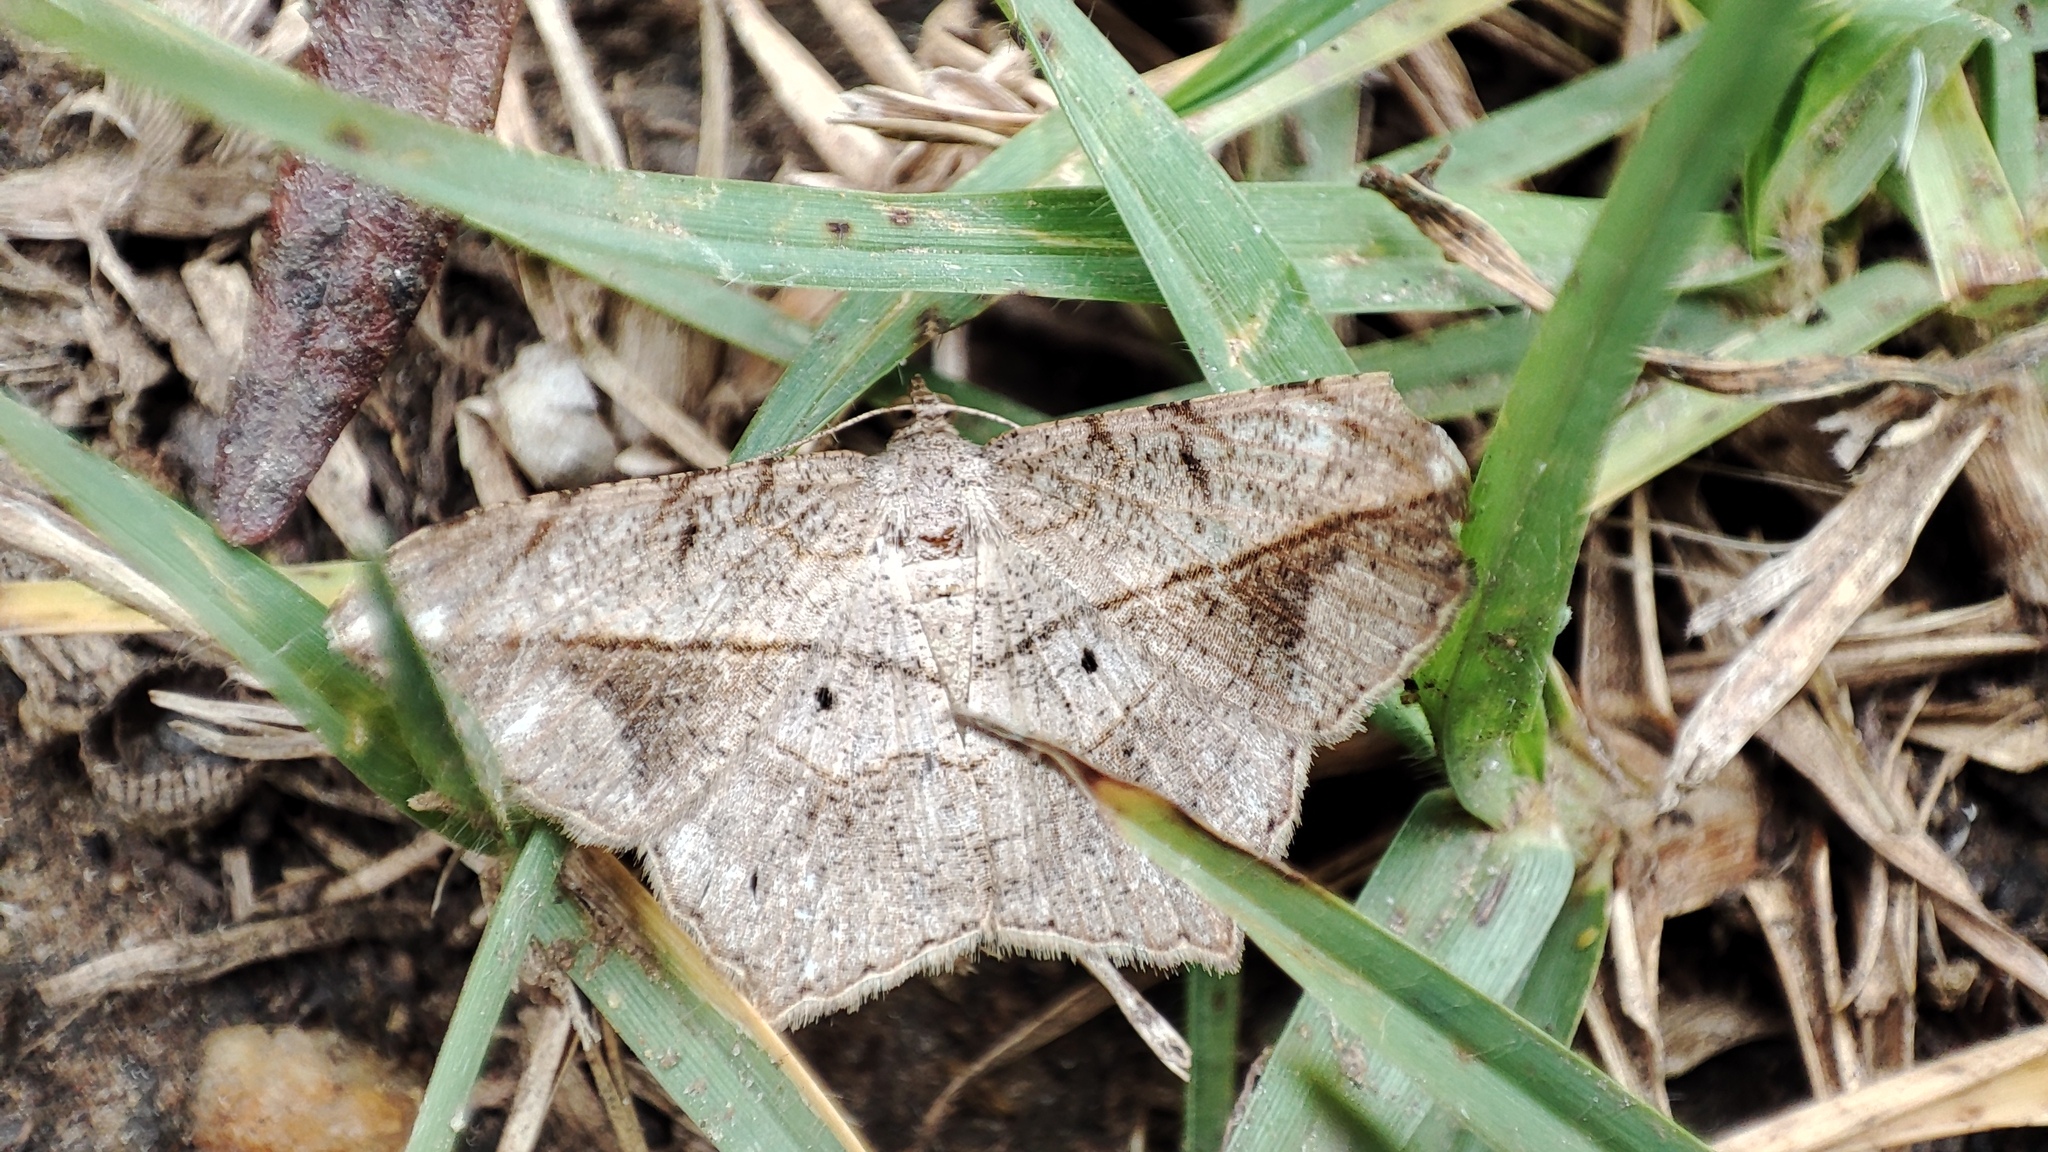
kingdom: Animalia
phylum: Arthropoda
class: Insecta
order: Lepidoptera
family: Geometridae
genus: Chiasmia
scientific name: Chiasmia simplicilinea
